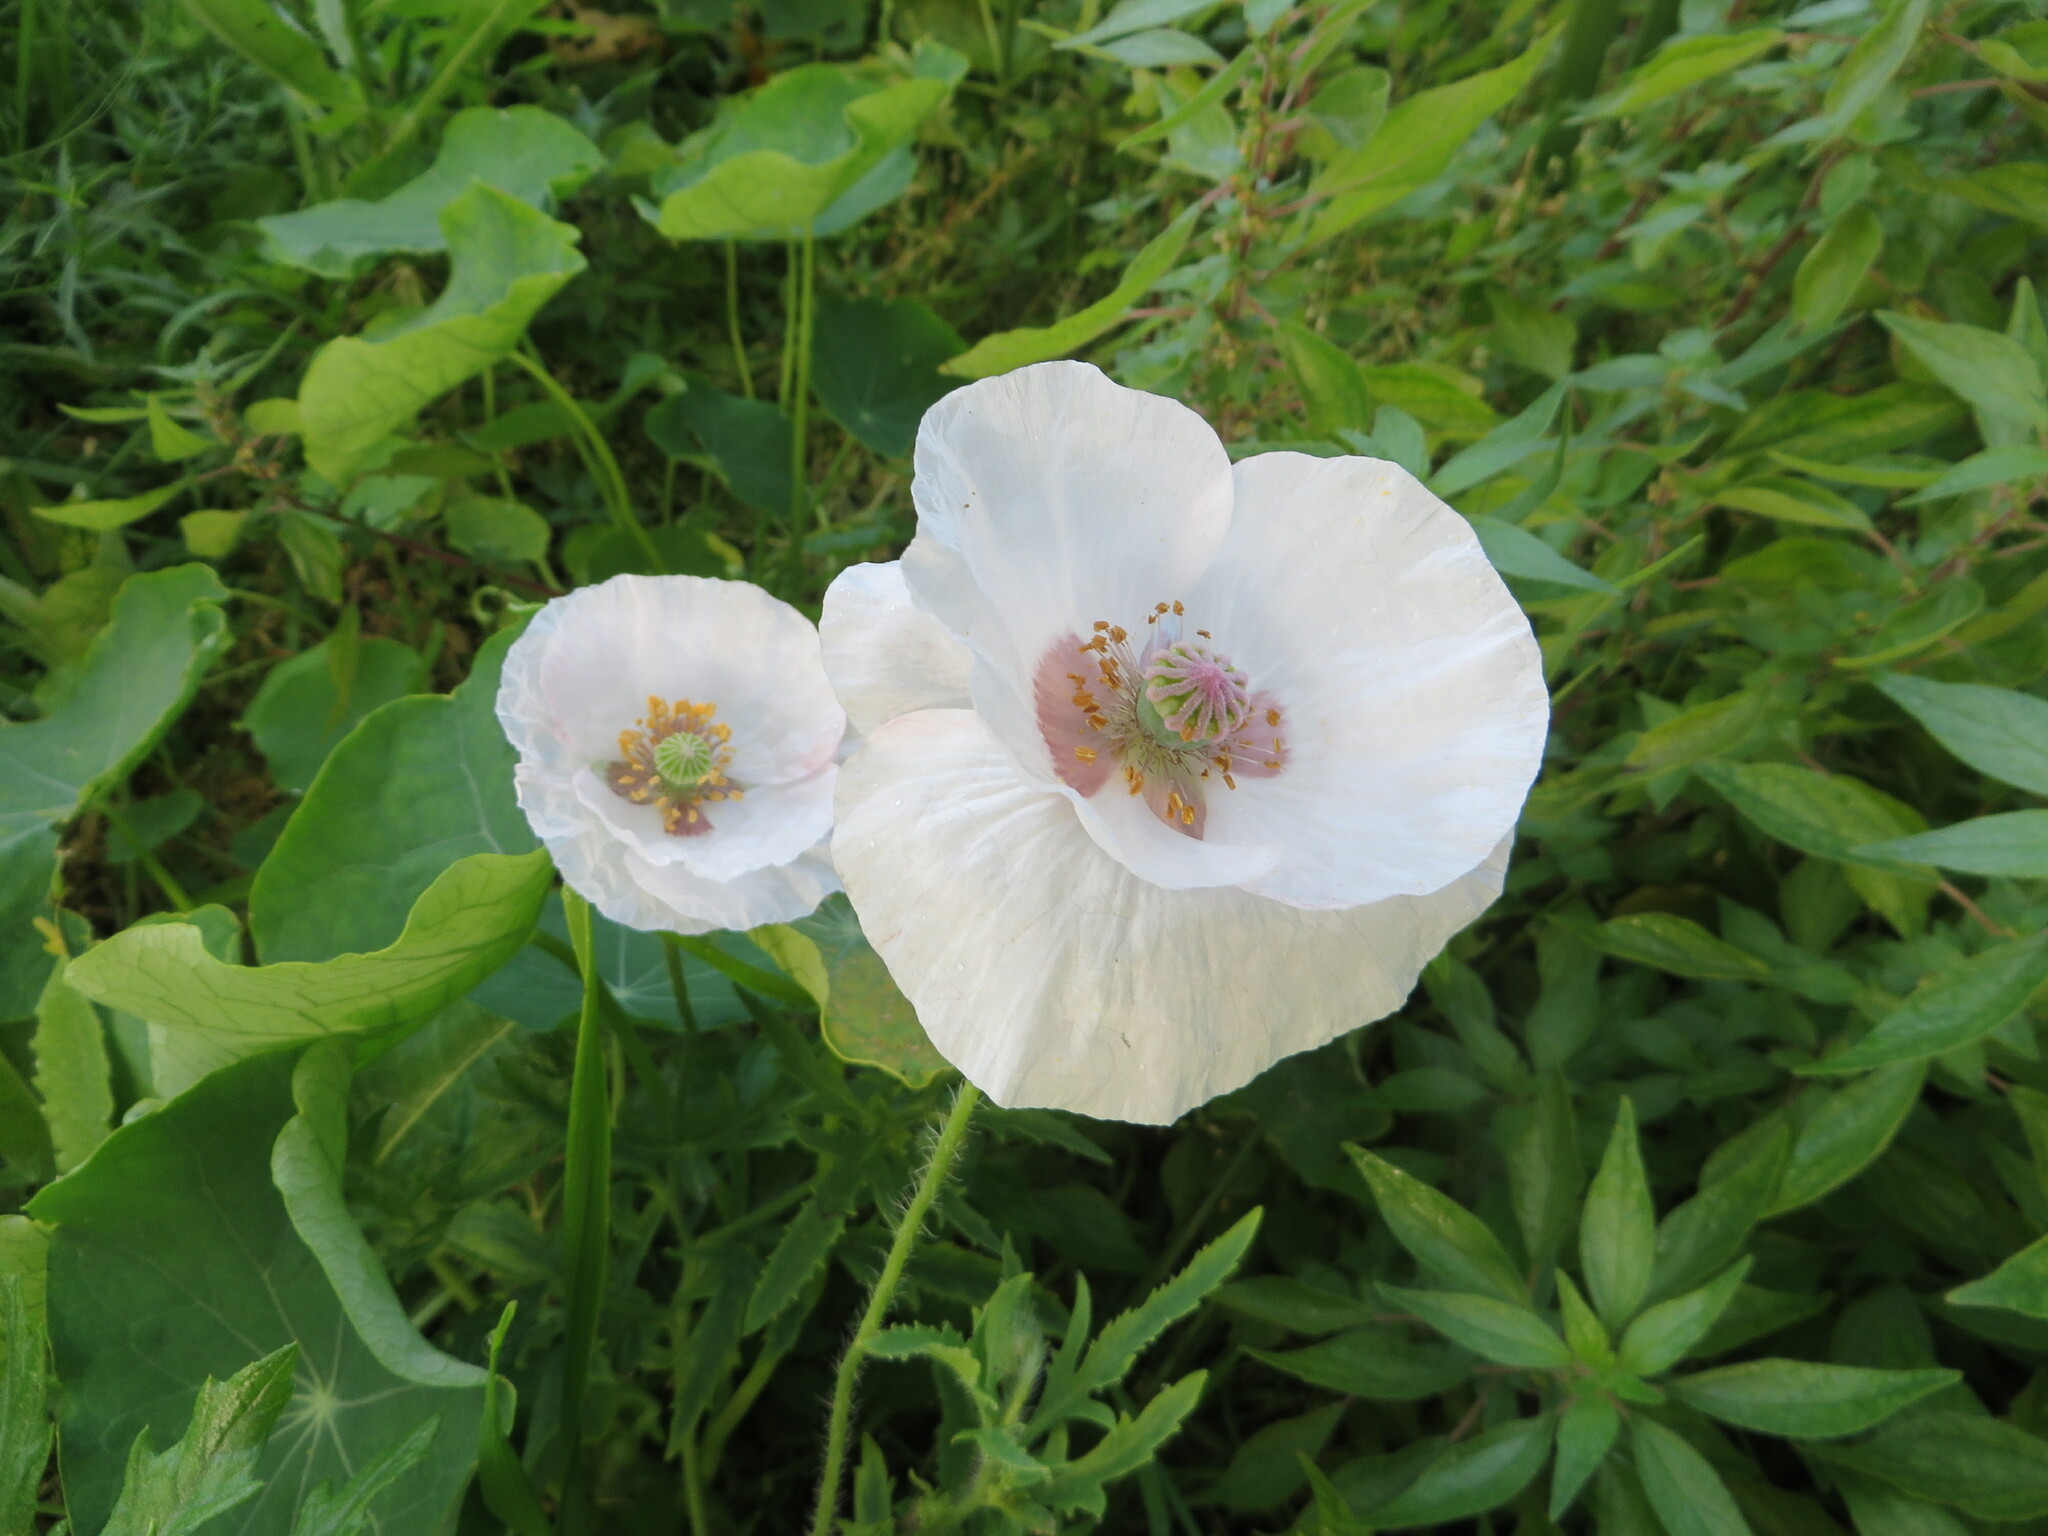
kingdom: Plantae
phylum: Tracheophyta
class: Magnoliopsida
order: Ranunculales
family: Papaveraceae
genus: Papaver
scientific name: Papaver rhoeas
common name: Corn poppy
